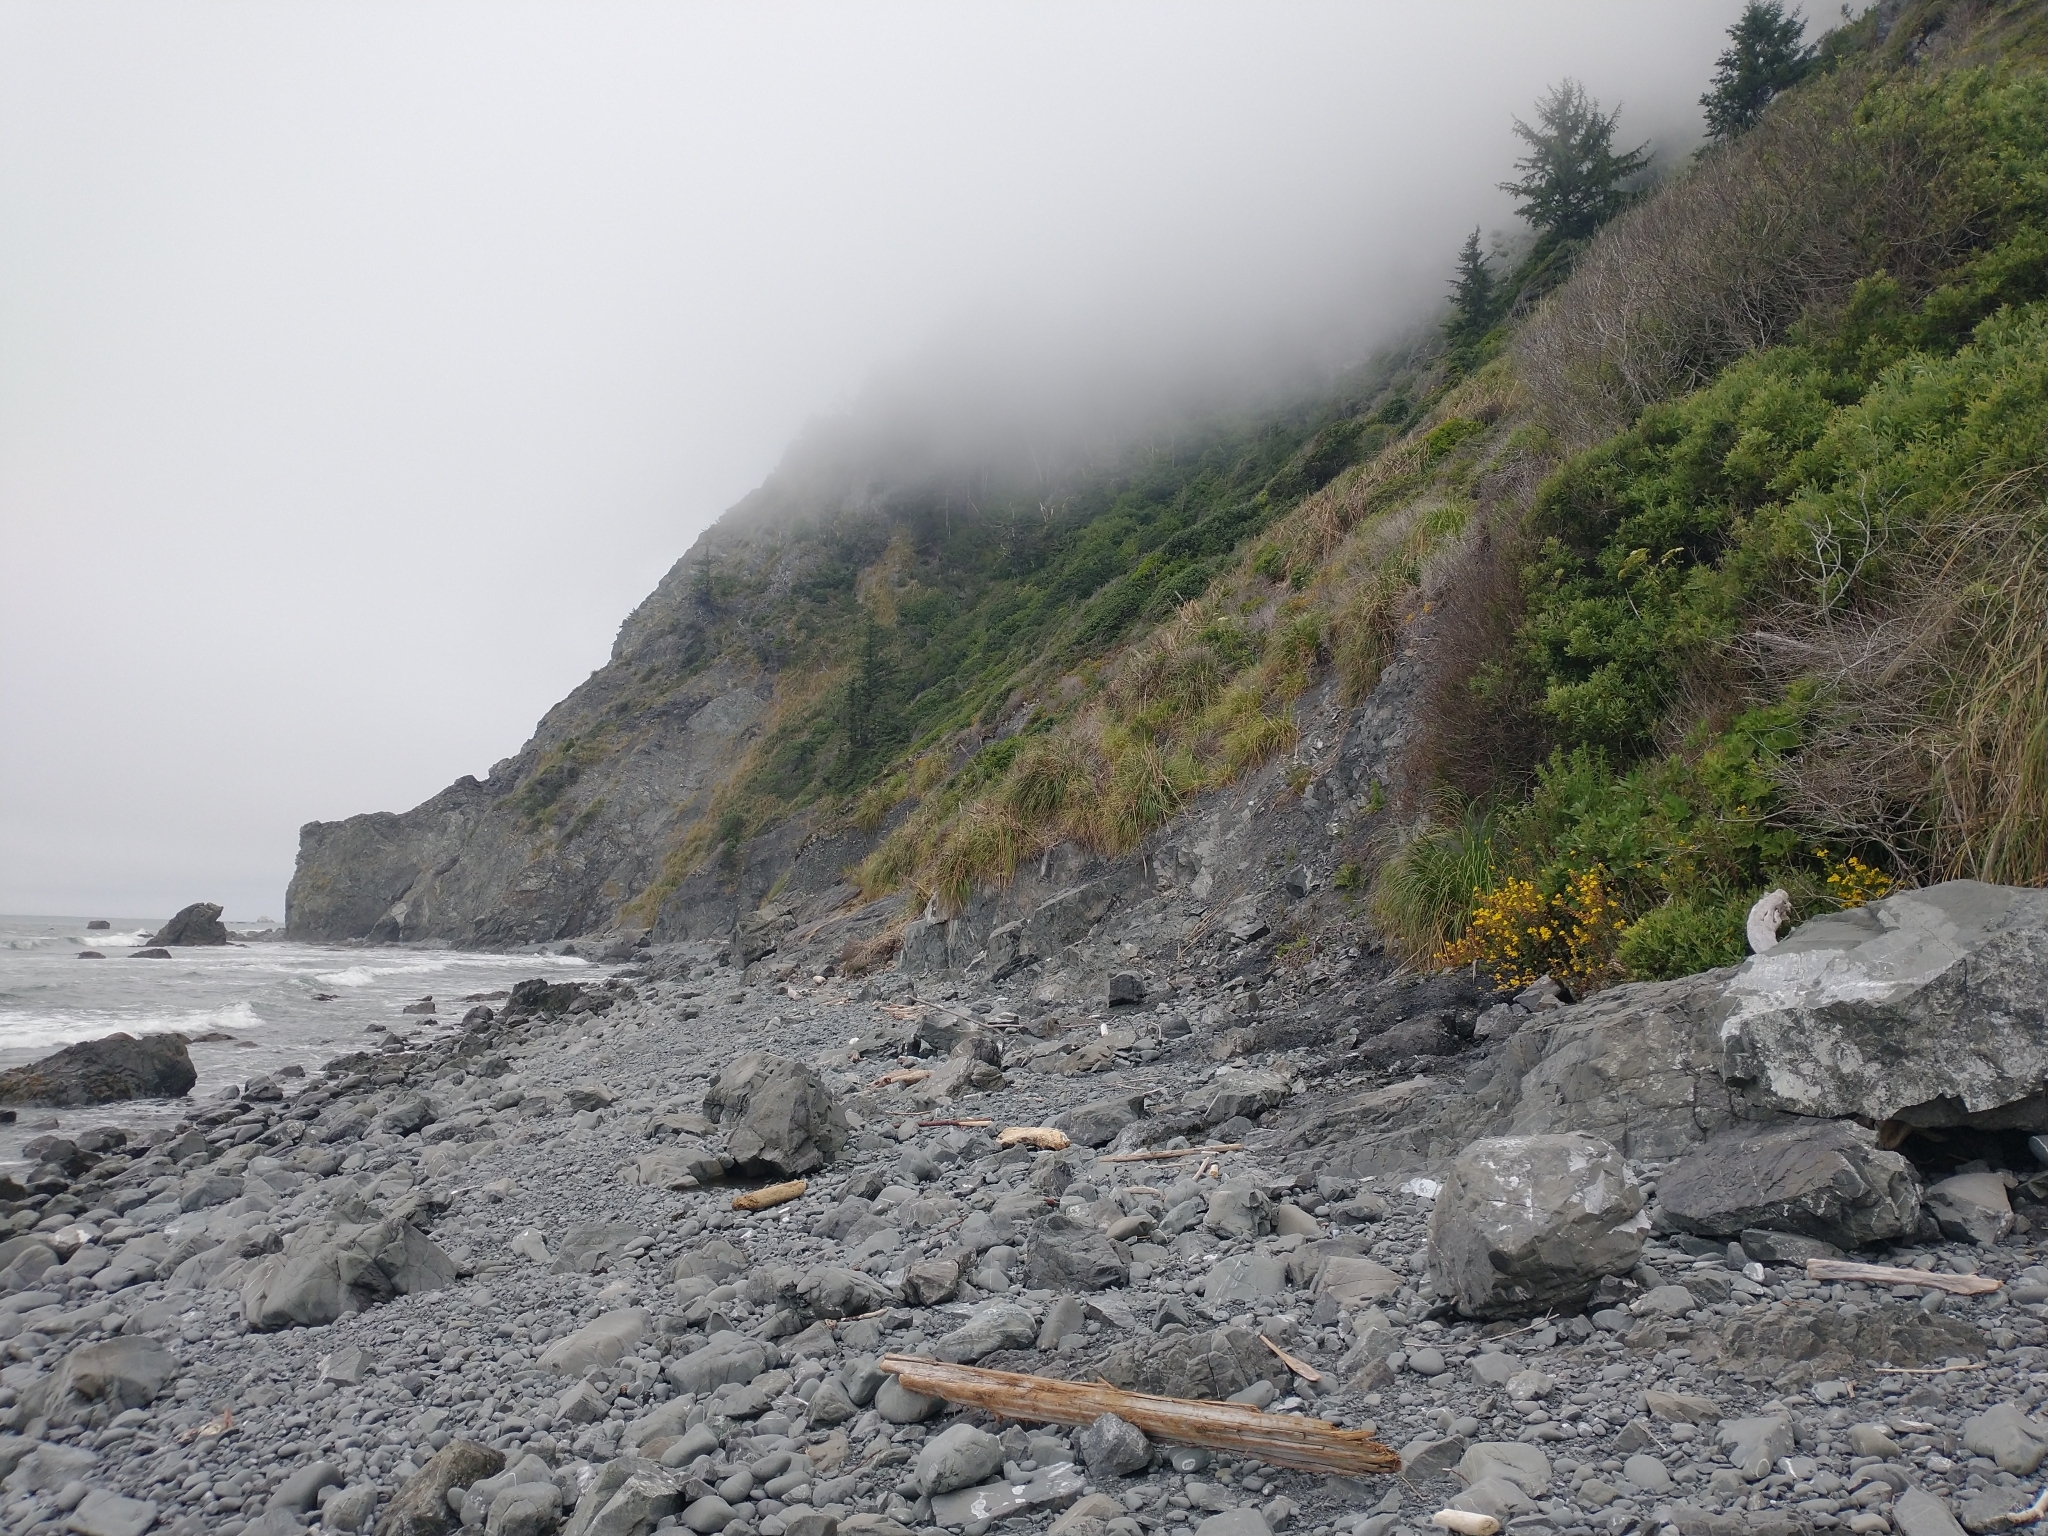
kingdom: Plantae
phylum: Tracheophyta
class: Magnoliopsida
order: Lamiales
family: Phrymaceae
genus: Erythranthe
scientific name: Erythranthe grandis
